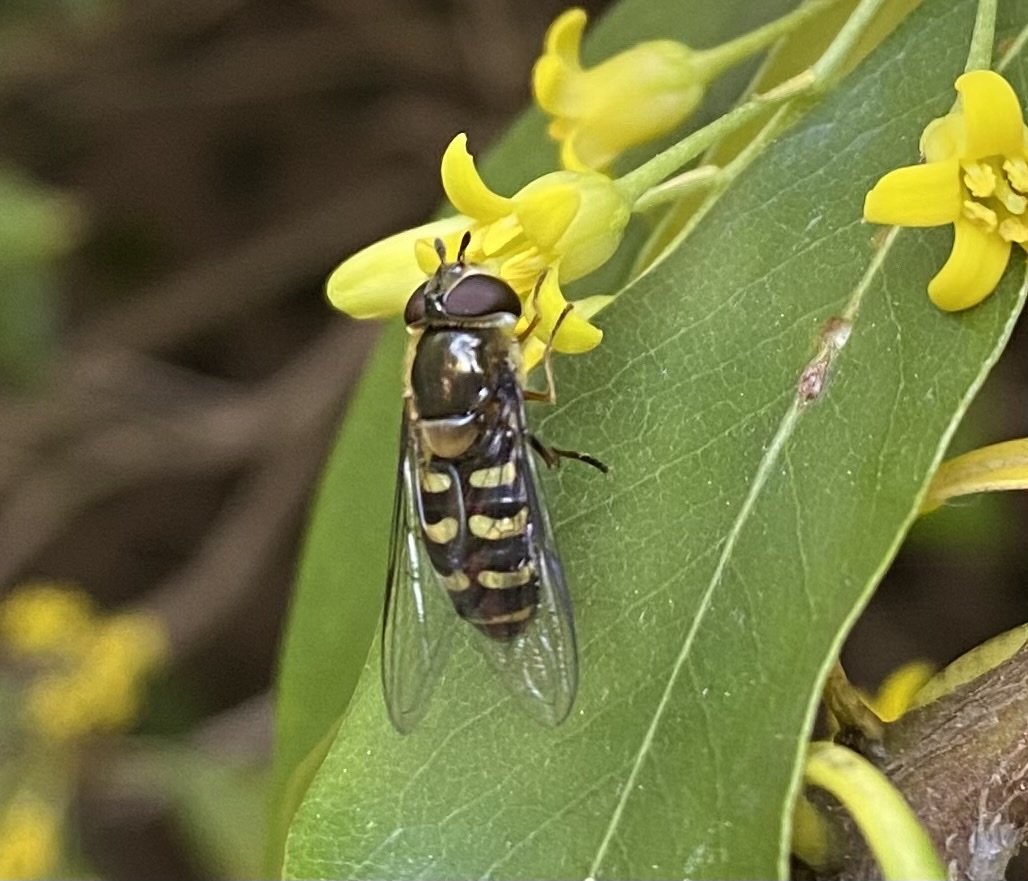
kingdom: Animalia
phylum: Arthropoda
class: Insecta
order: Diptera
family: Syrphidae
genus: Lapposyrphus
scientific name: Lapposyrphus lapponicus
